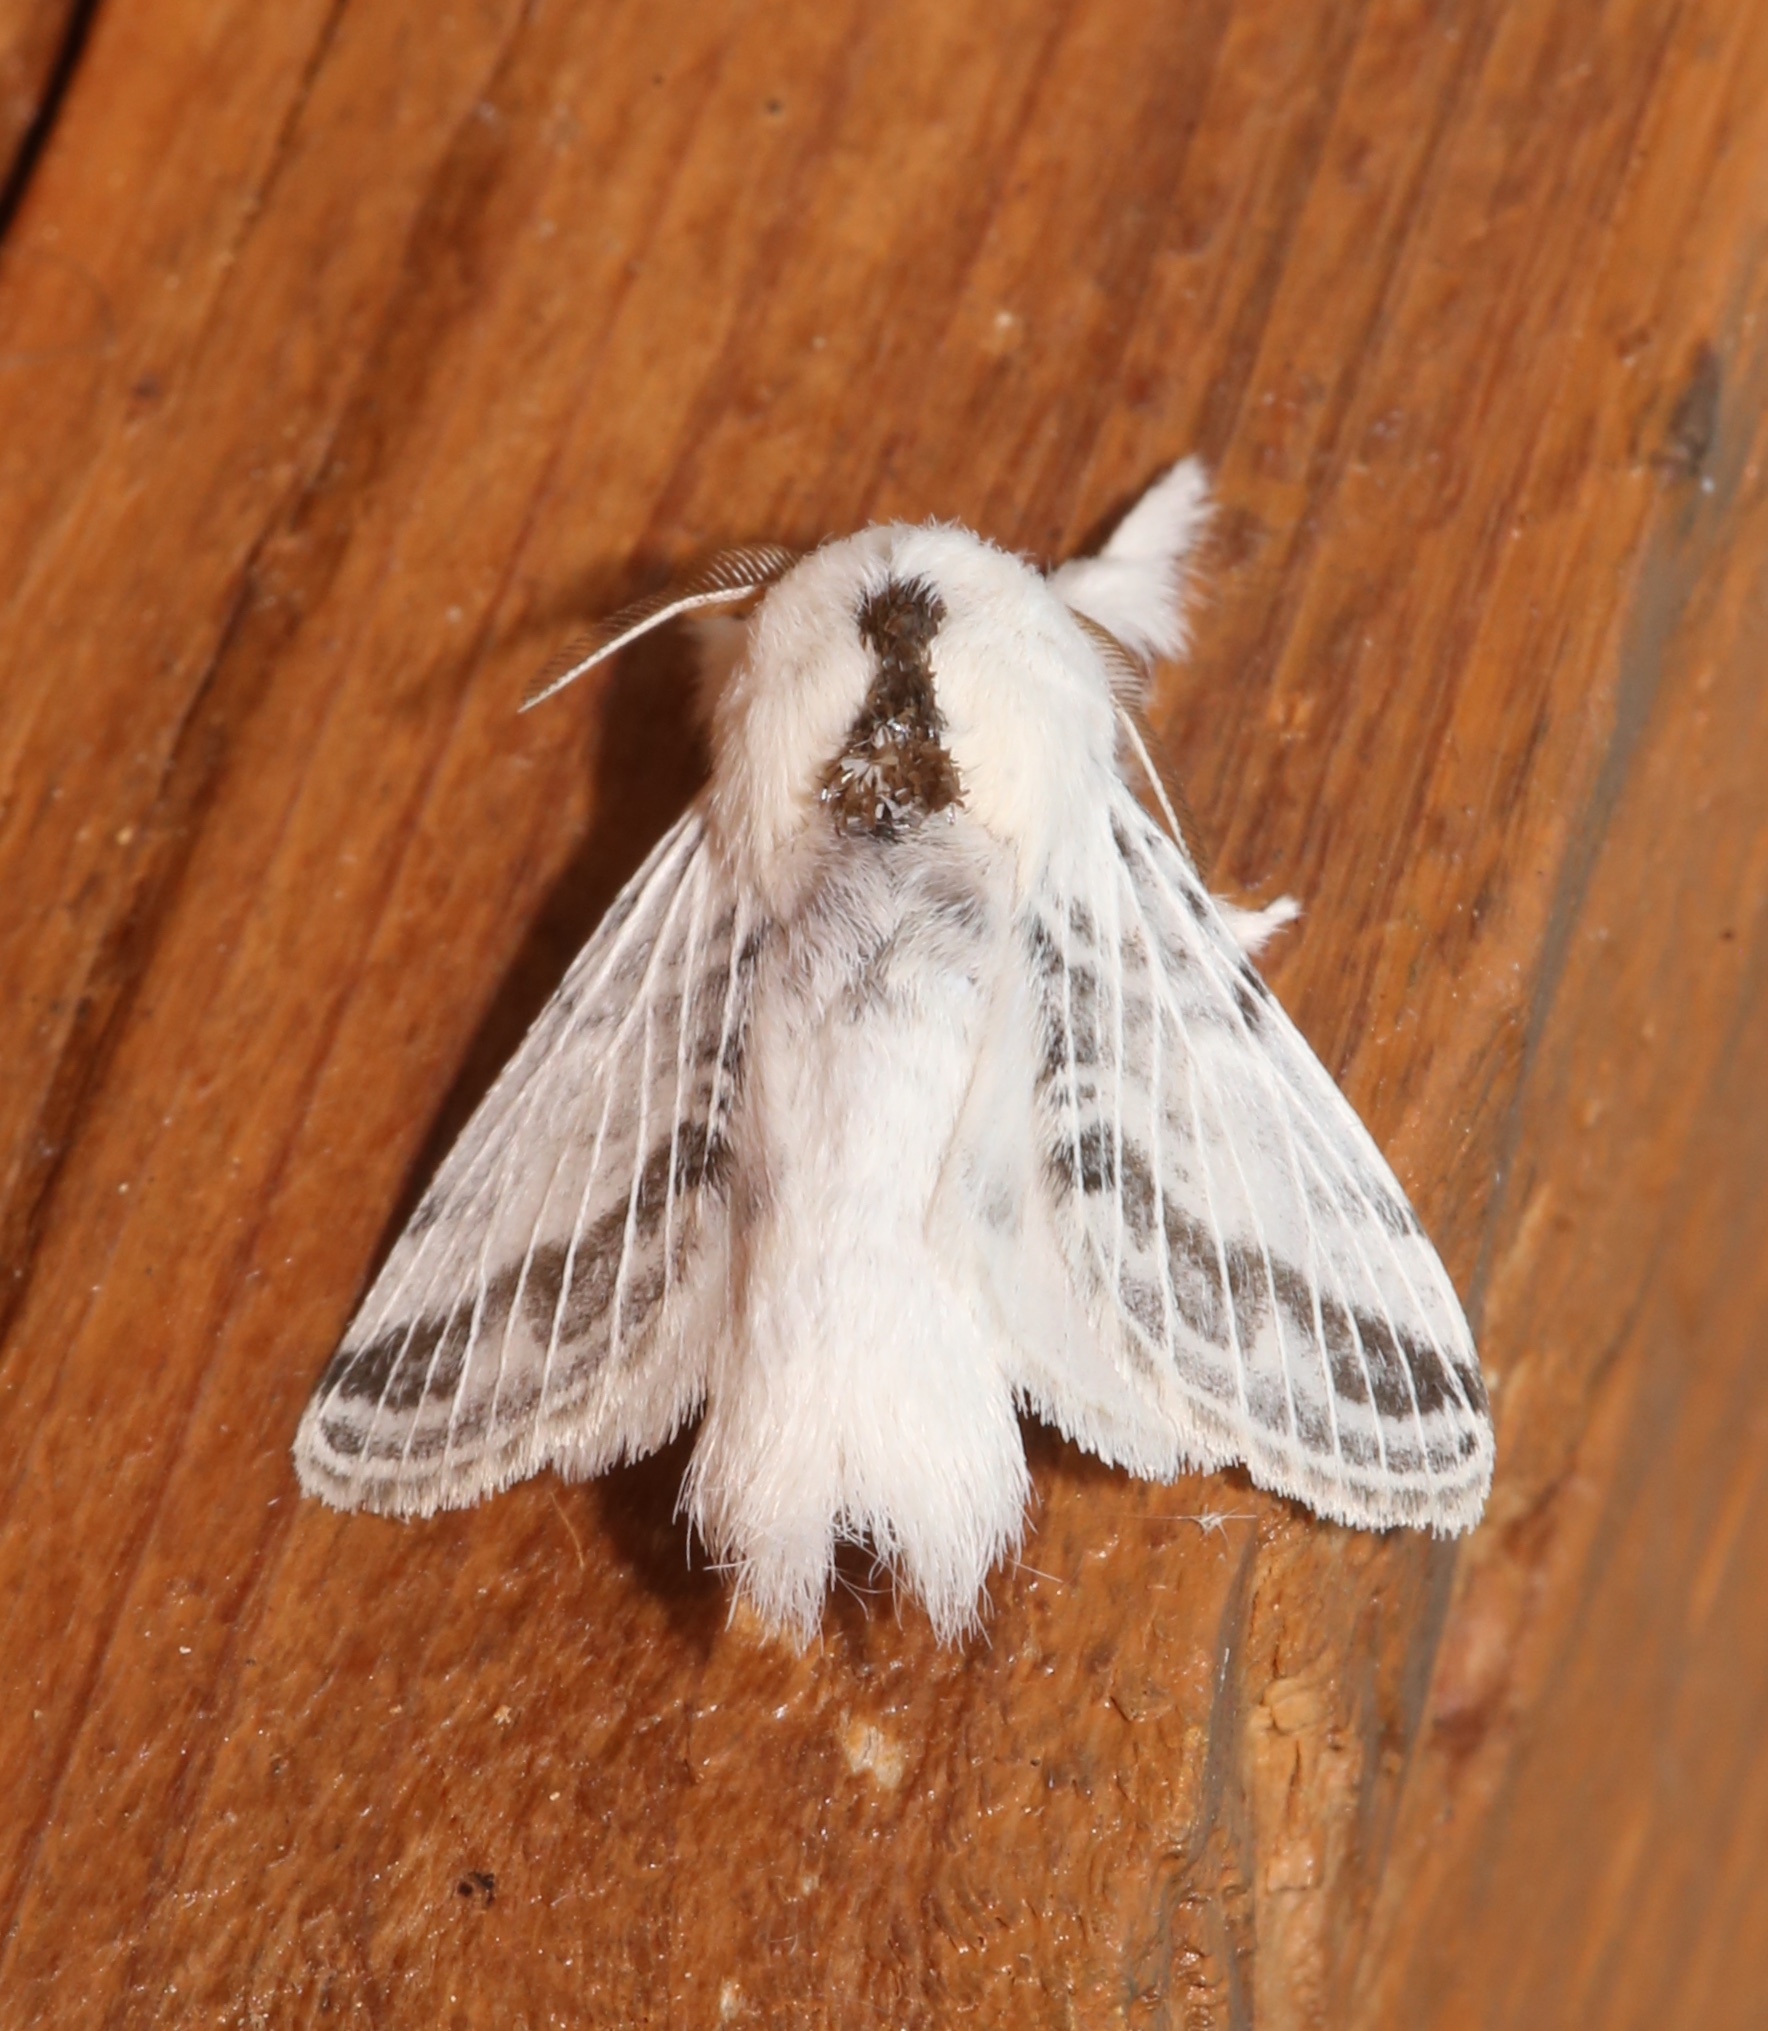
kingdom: Animalia
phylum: Arthropoda
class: Insecta
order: Lepidoptera
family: Lasiocampidae
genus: Tolype
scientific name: Tolype minta
